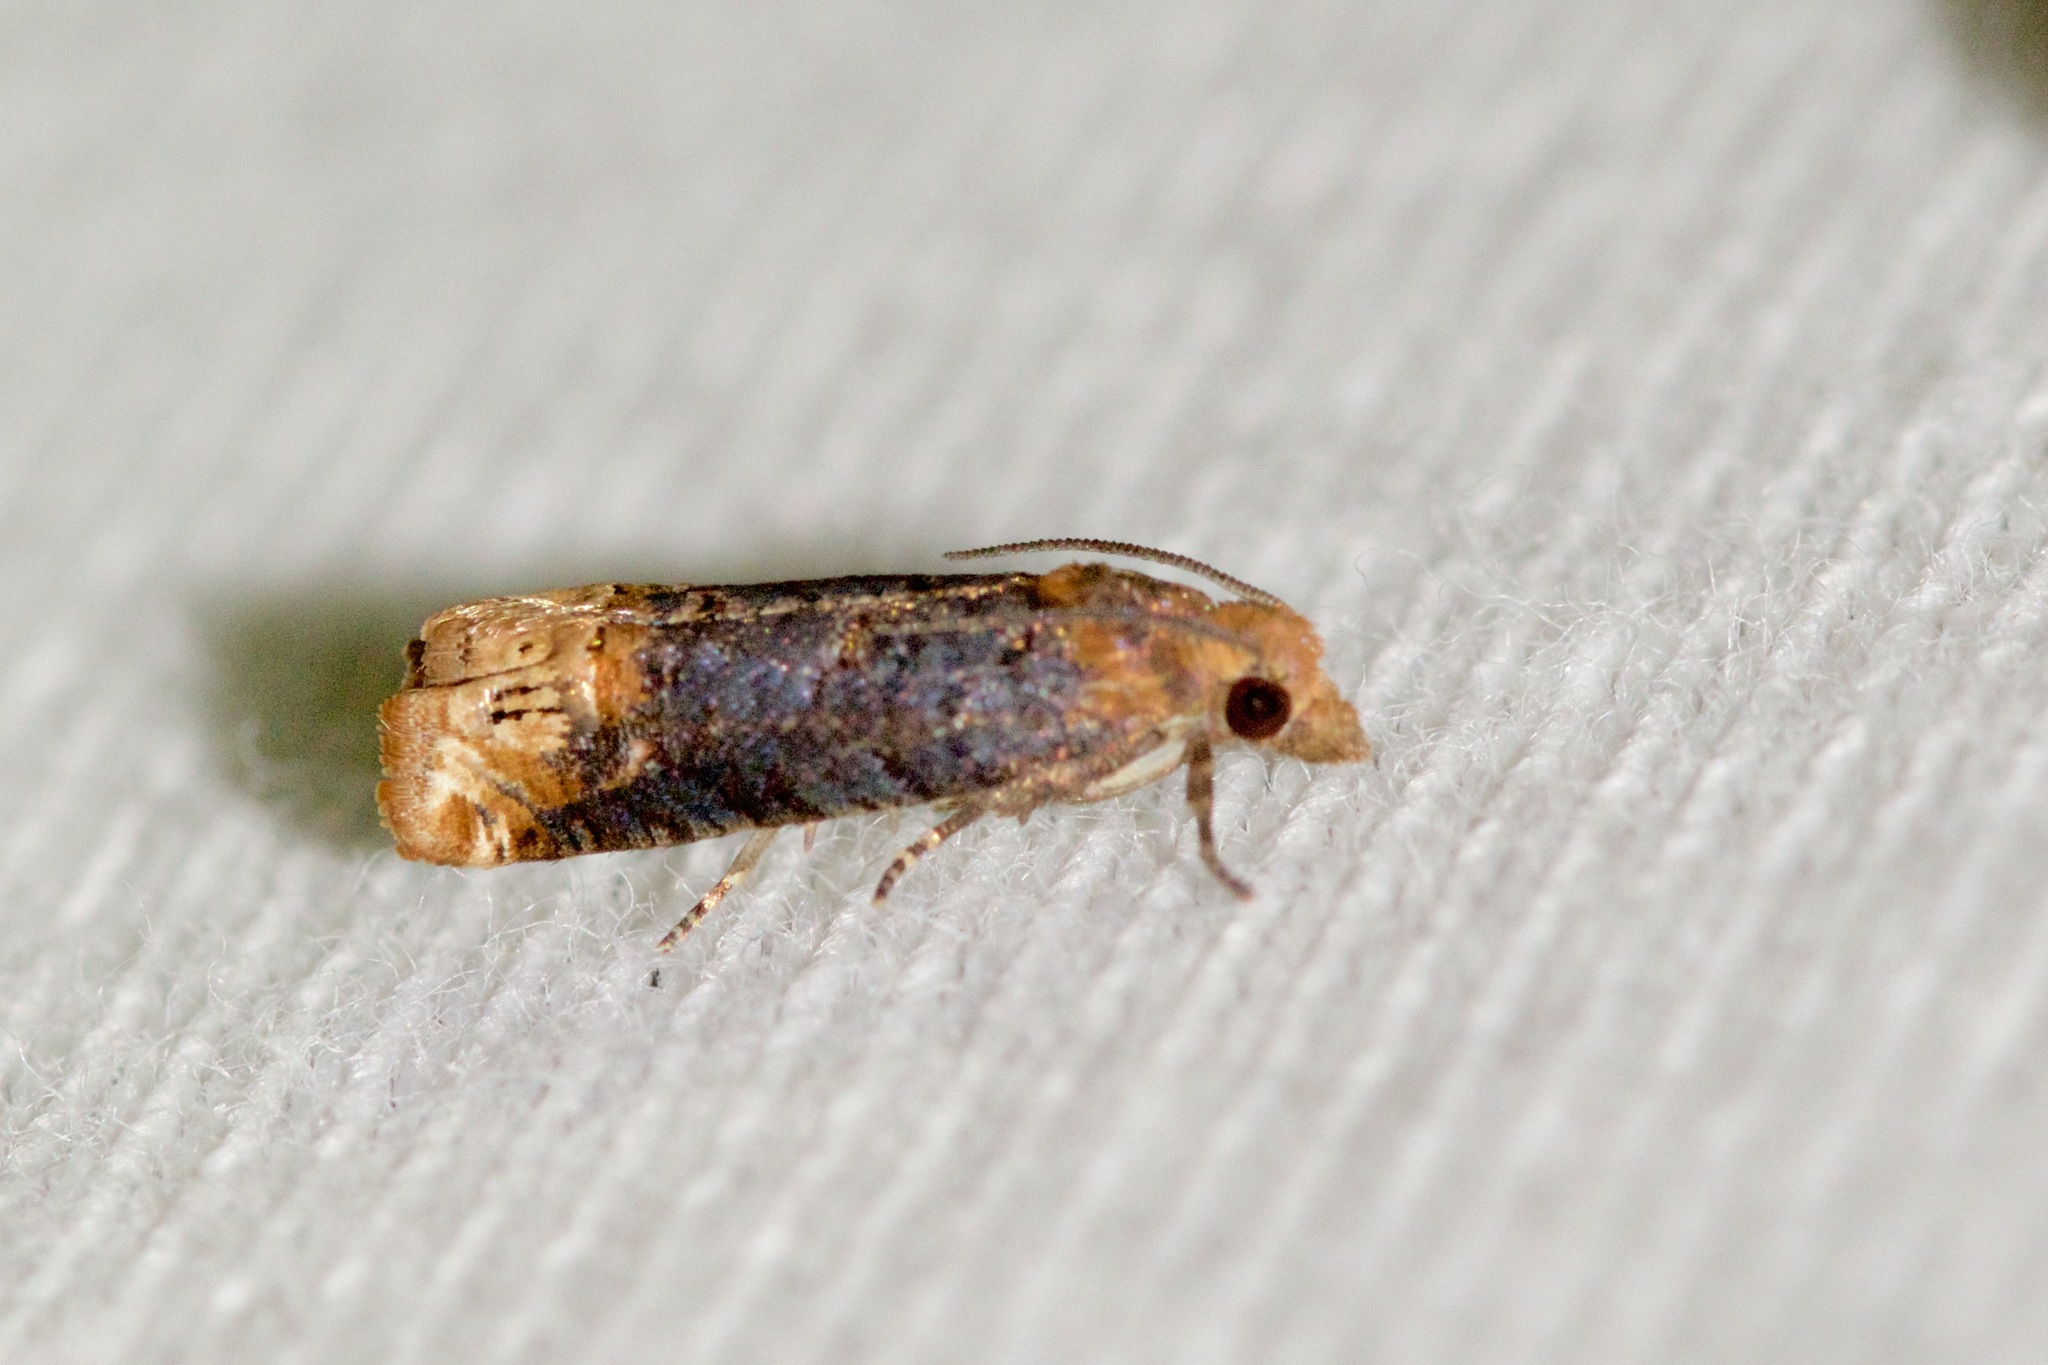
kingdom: Animalia
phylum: Arthropoda
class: Insecta
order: Lepidoptera
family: Tortricidae
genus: Eucosma
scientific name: Eucosma ochroterminana
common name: Buff-tipped eucosma moth
